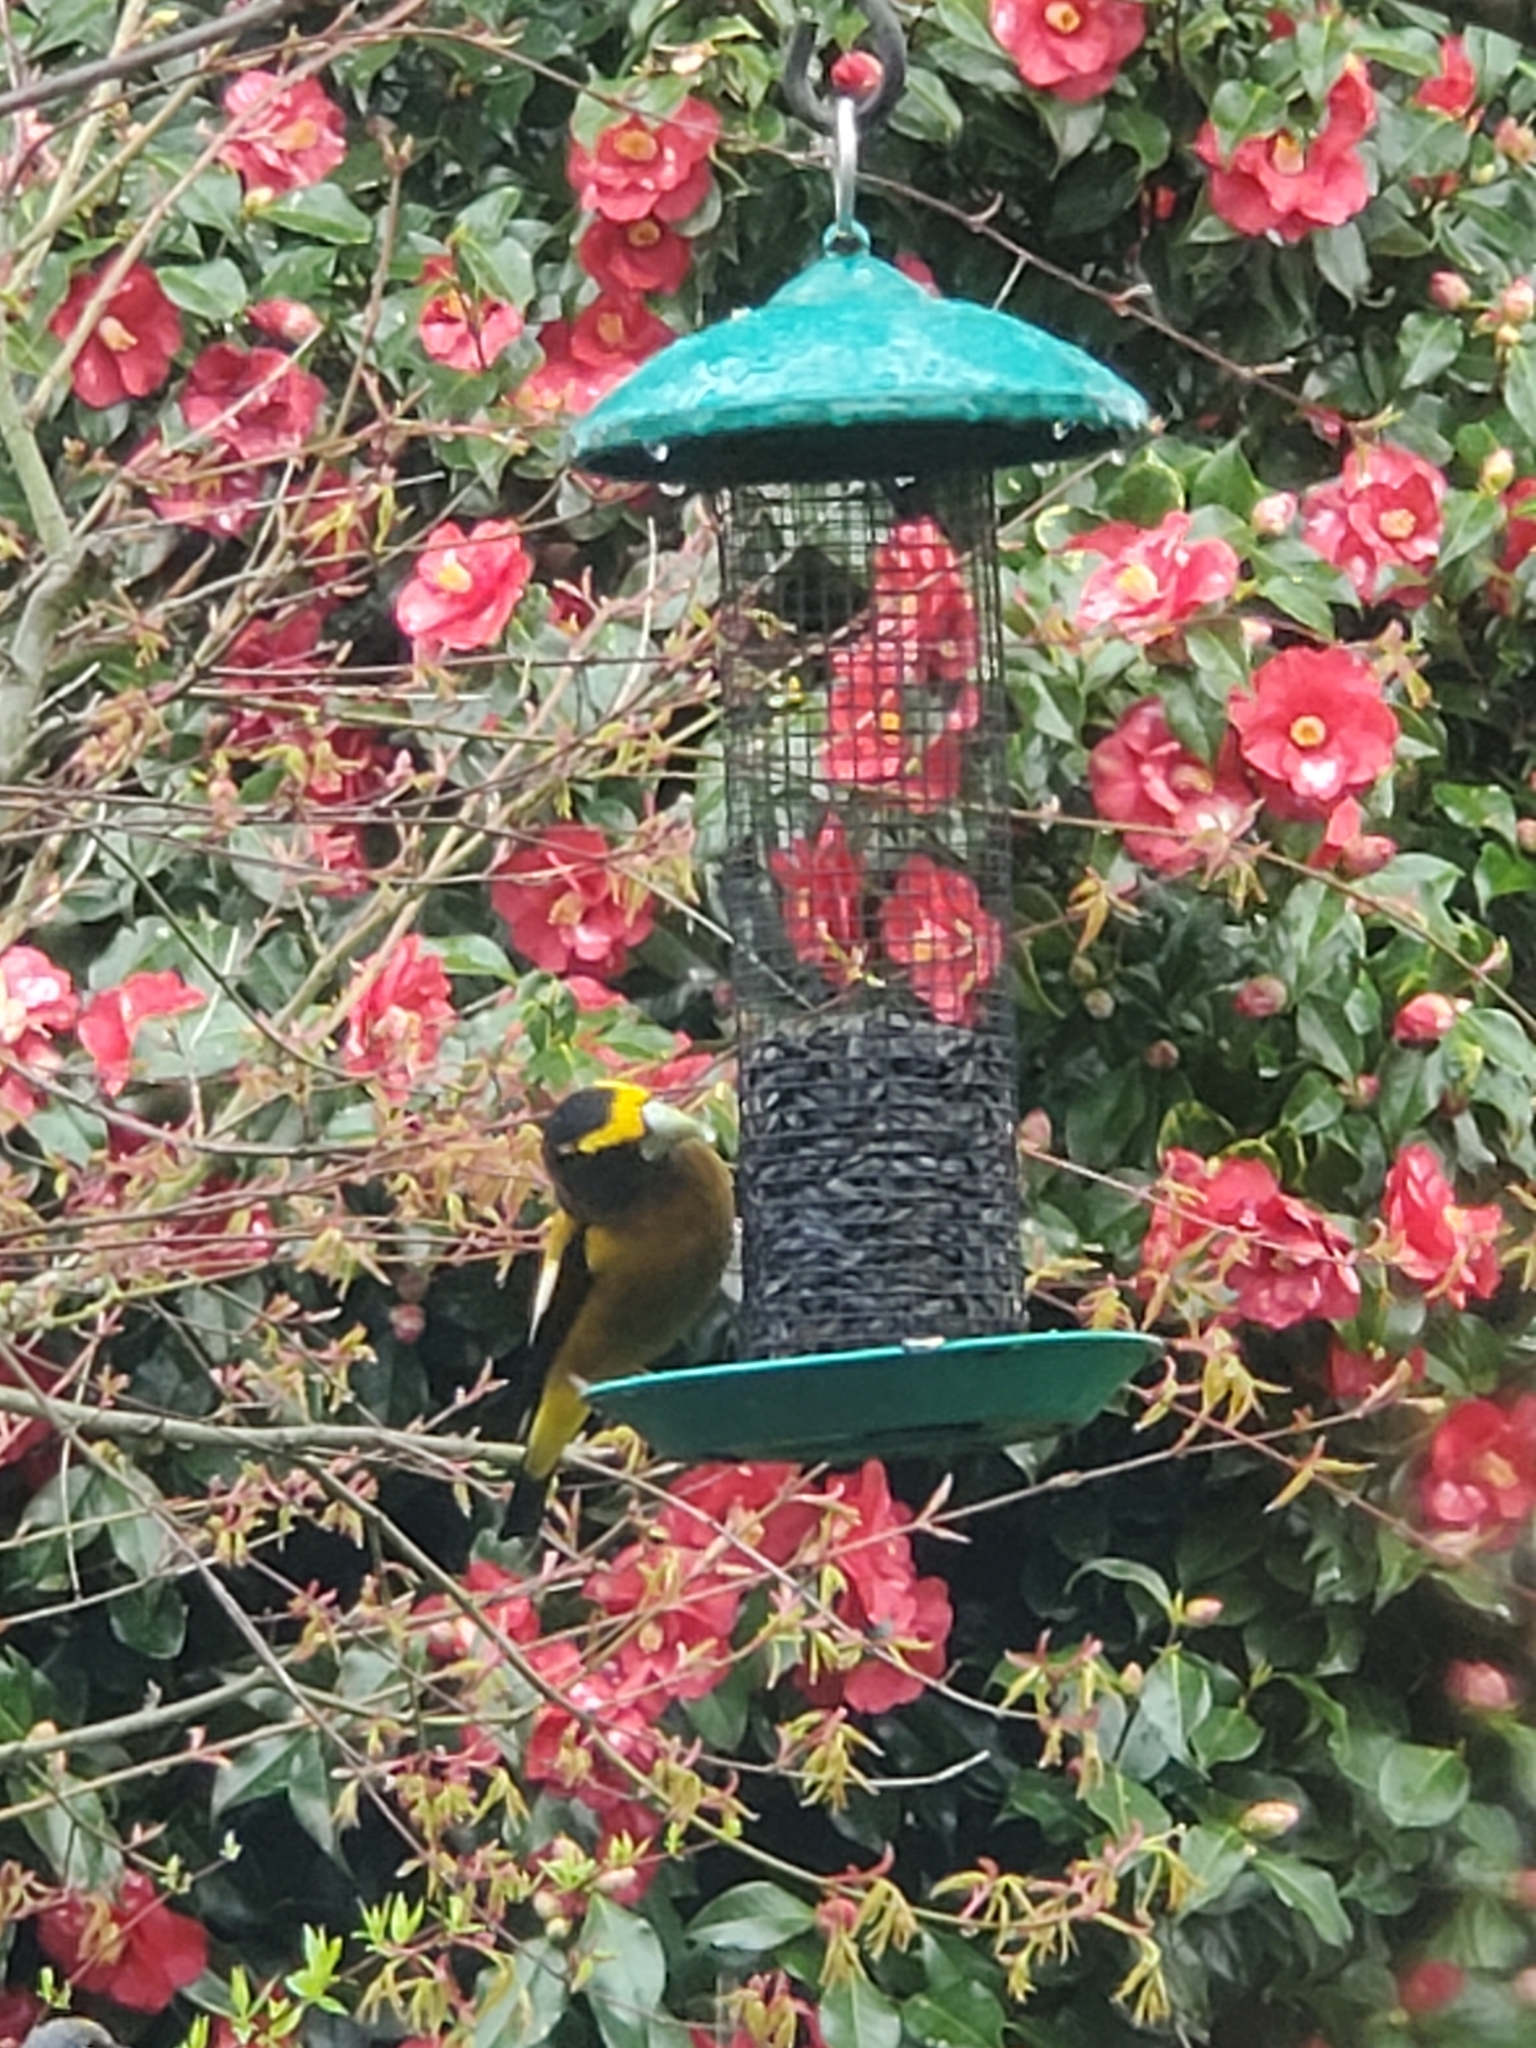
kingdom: Animalia
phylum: Chordata
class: Aves
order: Passeriformes
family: Fringillidae
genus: Hesperiphona
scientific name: Hesperiphona vespertina
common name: Evening grosbeak
